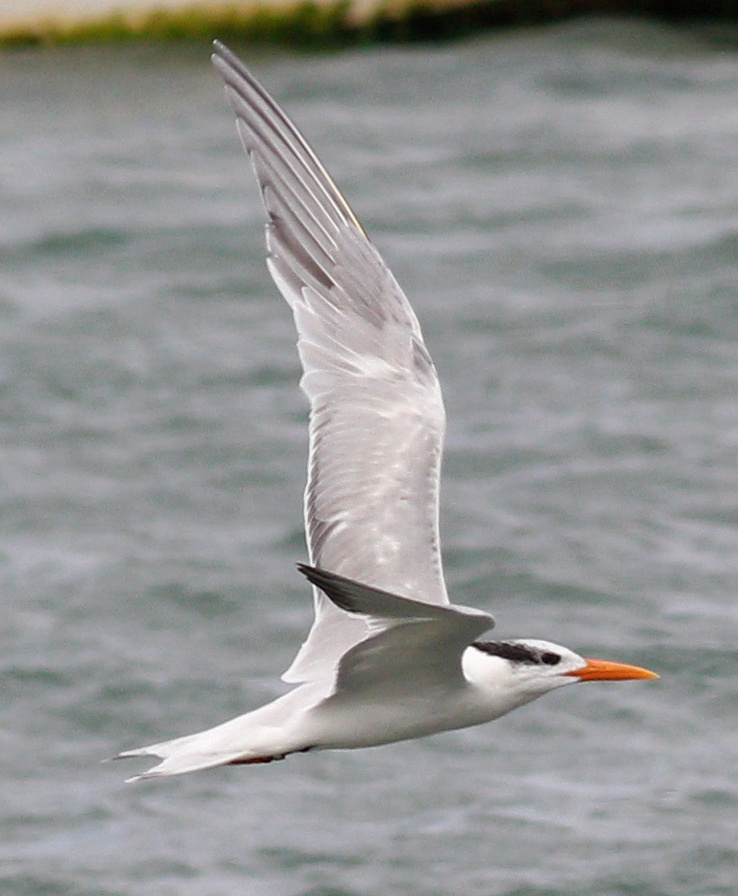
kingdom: Animalia
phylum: Chordata
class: Aves
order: Charadriiformes
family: Laridae
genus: Thalasseus
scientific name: Thalasseus maximus
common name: Royal tern
